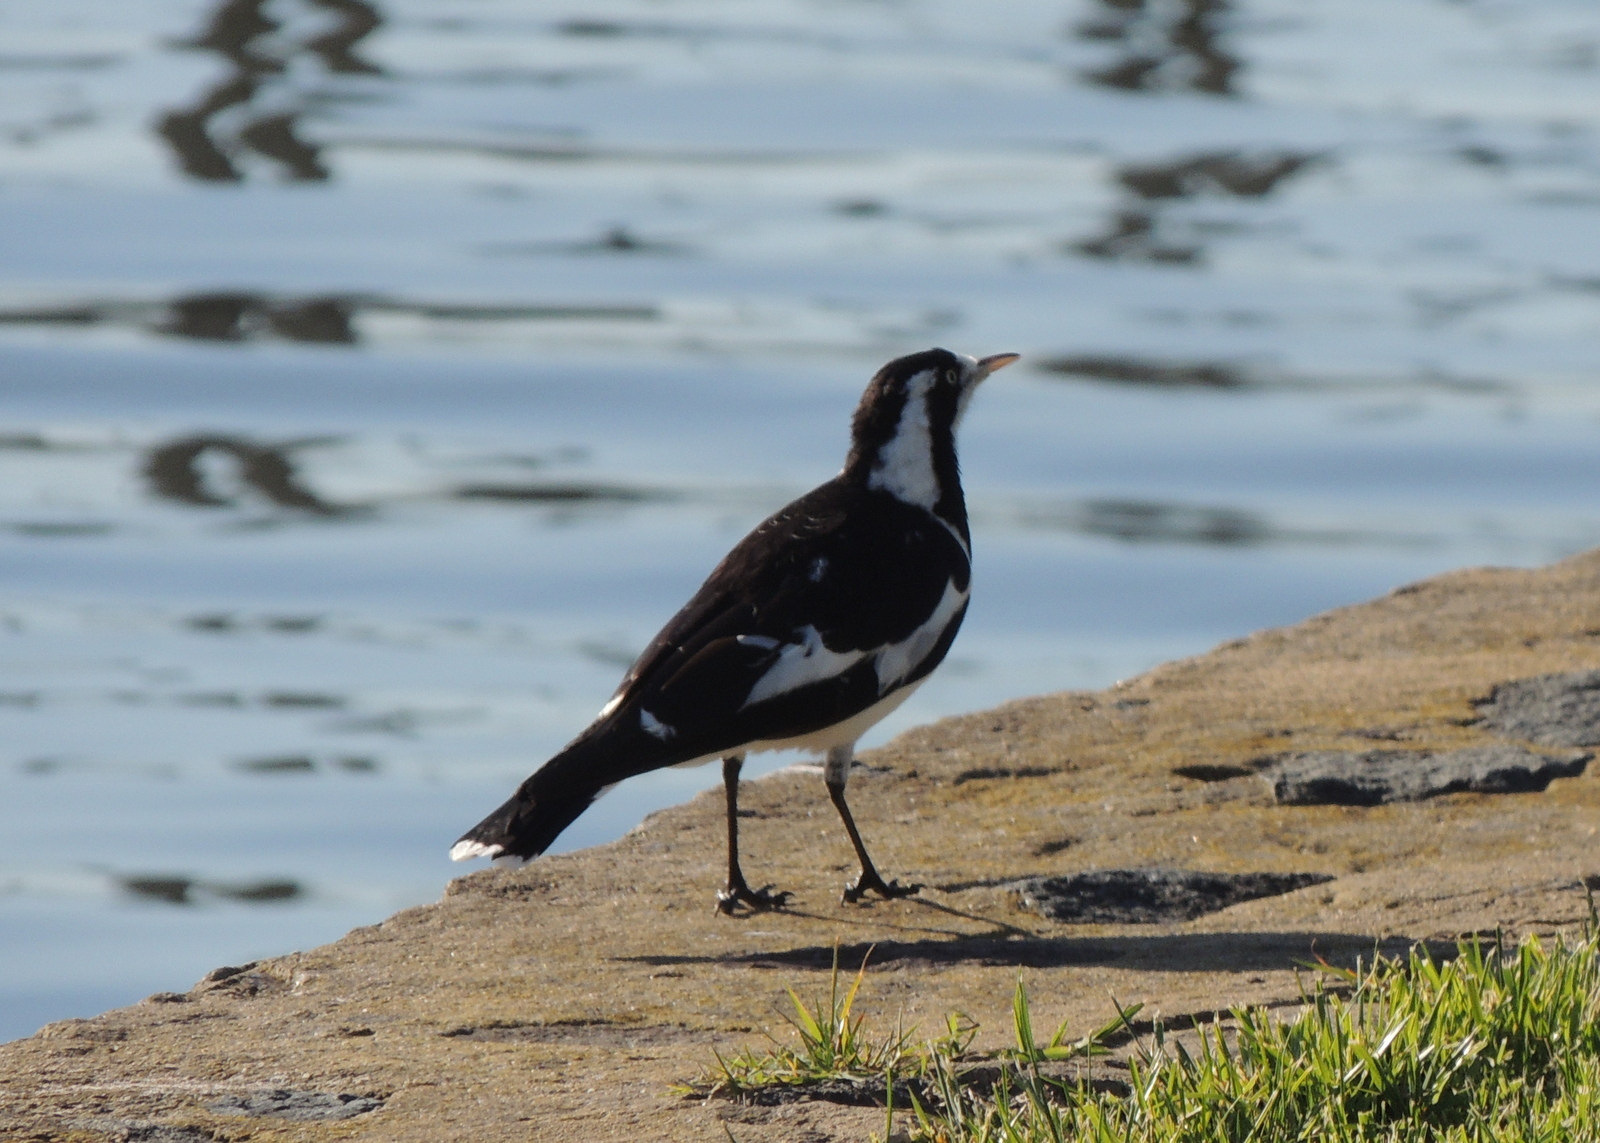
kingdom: Animalia
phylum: Chordata
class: Aves
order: Passeriformes
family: Monarchidae
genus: Grallina
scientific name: Grallina cyanoleuca
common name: Magpie-lark
